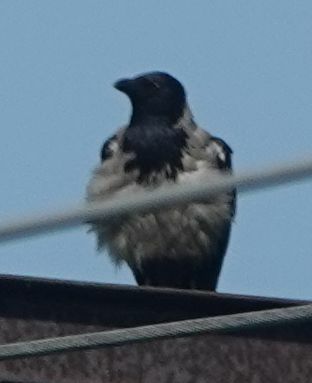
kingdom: Animalia
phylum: Chordata
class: Aves
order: Passeriformes
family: Corvidae
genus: Corvus
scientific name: Corvus cornix
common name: Hooded crow
